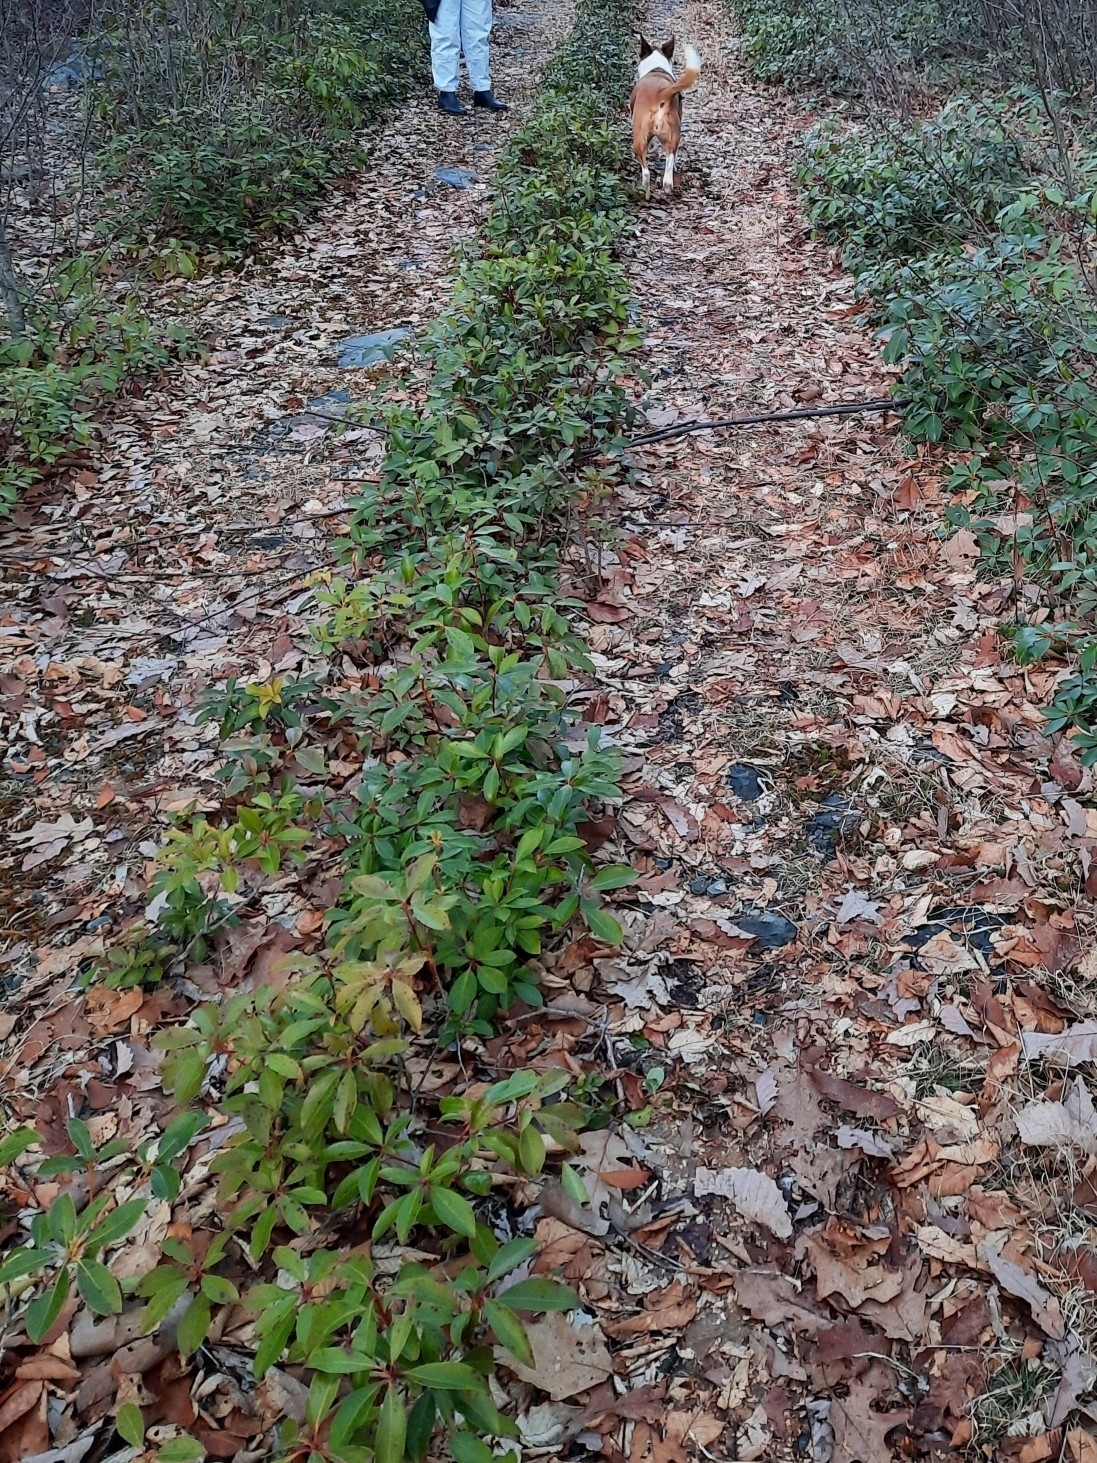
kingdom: Plantae
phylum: Tracheophyta
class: Magnoliopsida
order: Ericales
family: Ericaceae
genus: Kalmia
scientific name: Kalmia latifolia
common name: Mountain-laurel
